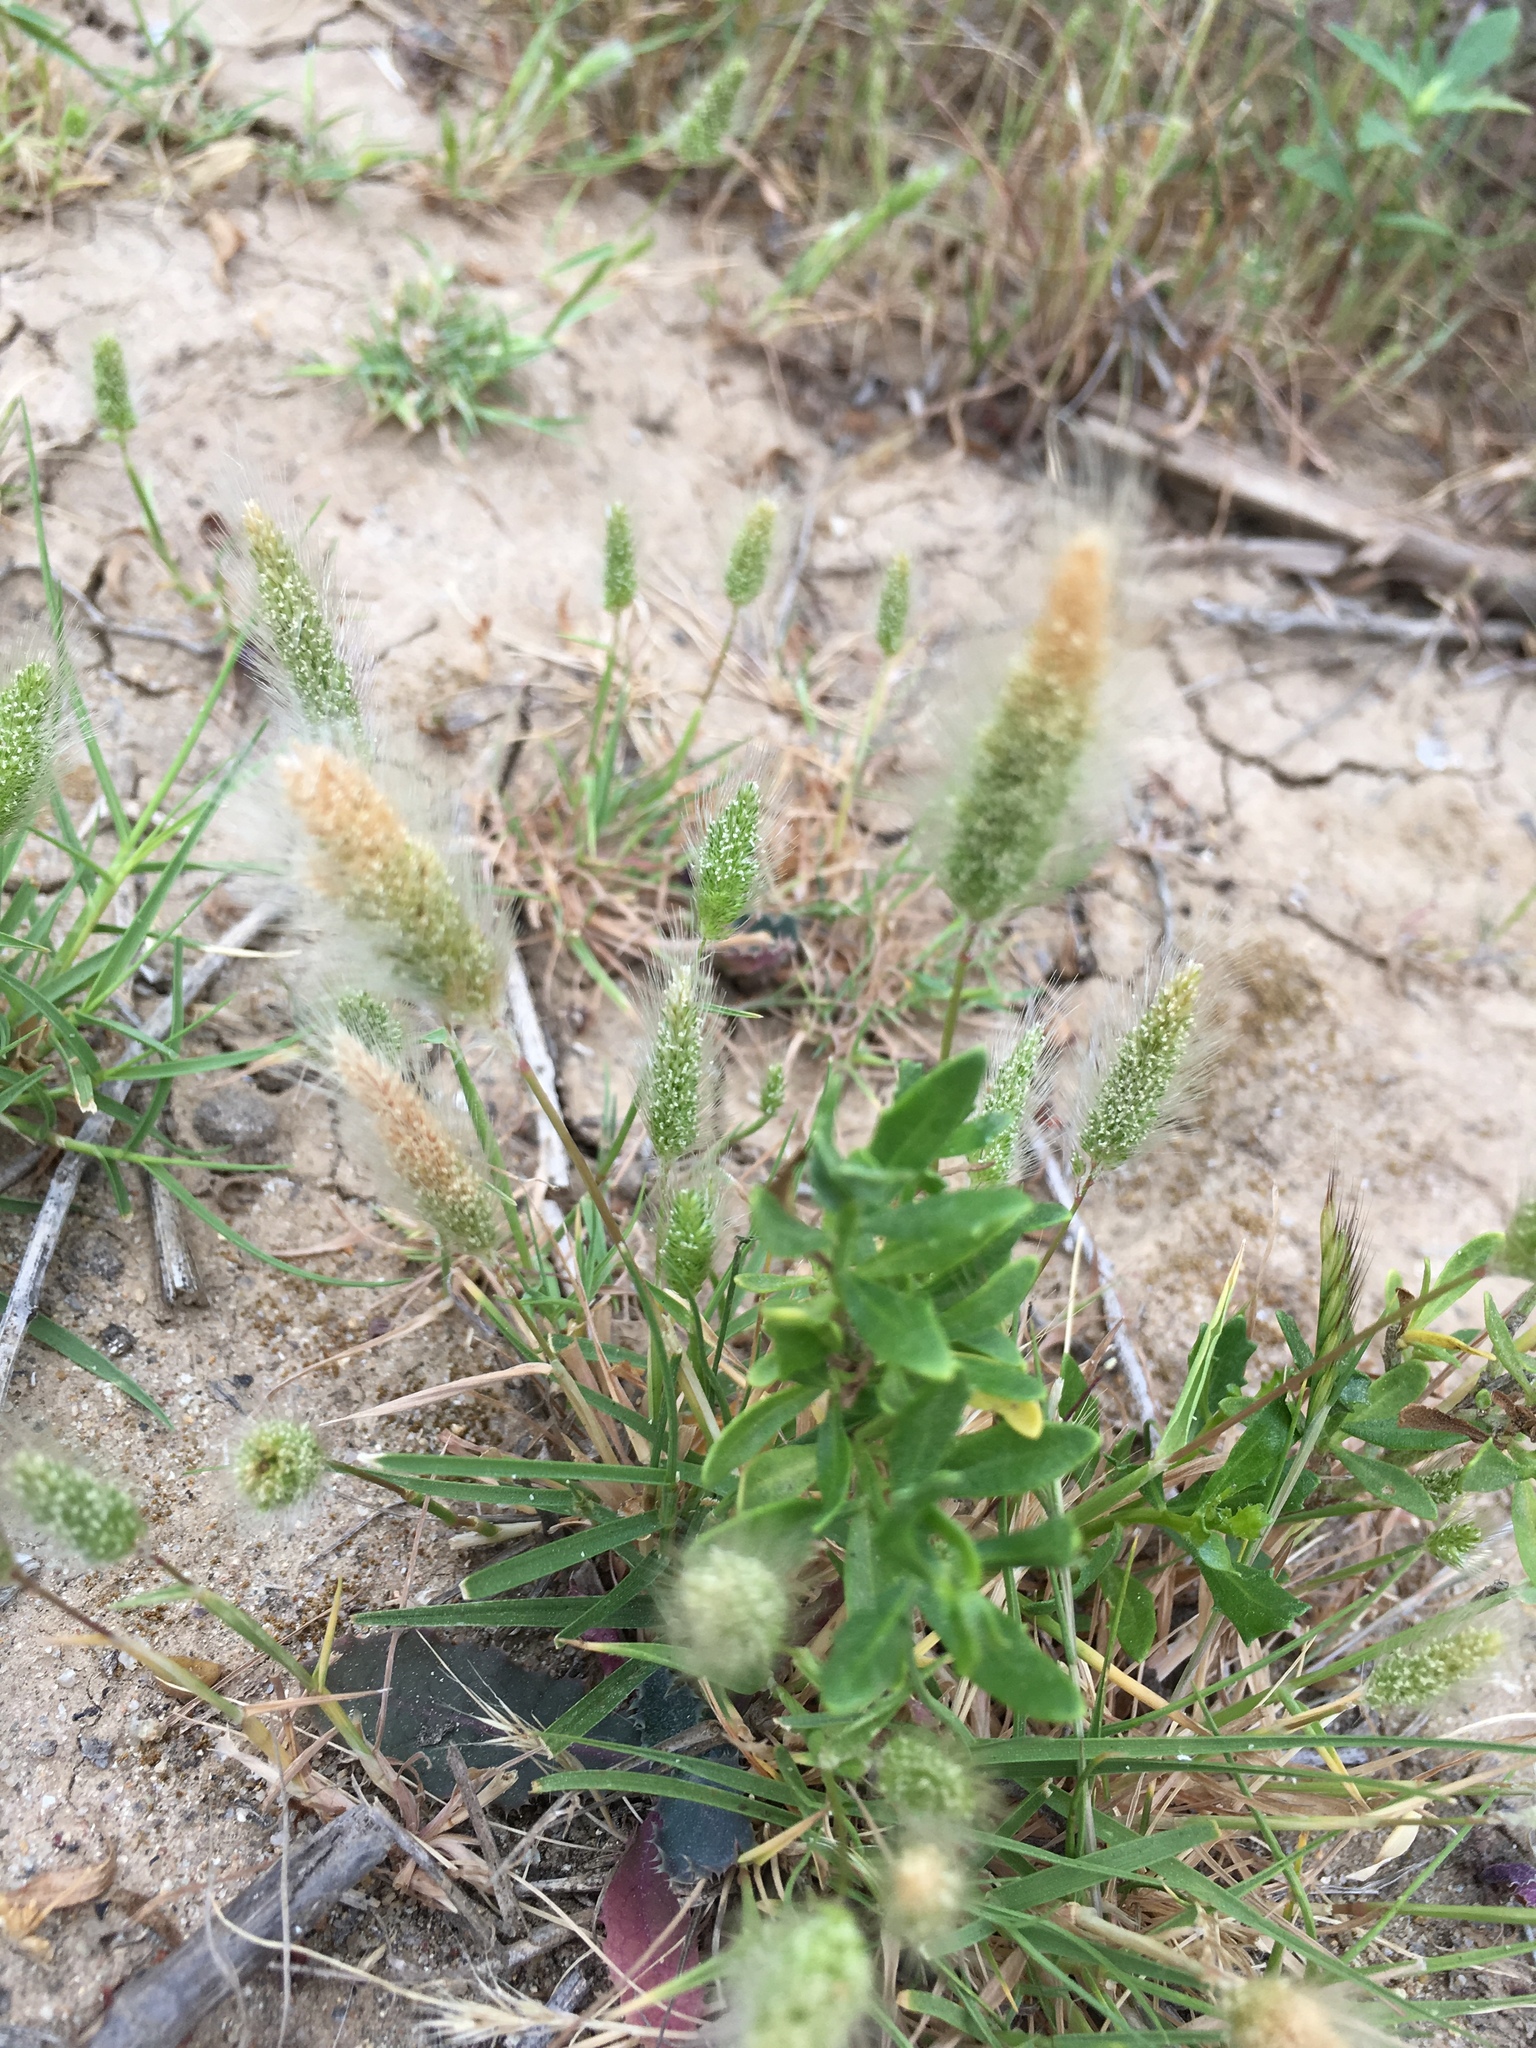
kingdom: Plantae
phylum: Tracheophyta
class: Liliopsida
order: Poales
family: Poaceae
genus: Polypogon
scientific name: Polypogon monspeliensis
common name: Annual rabbitsfoot grass
